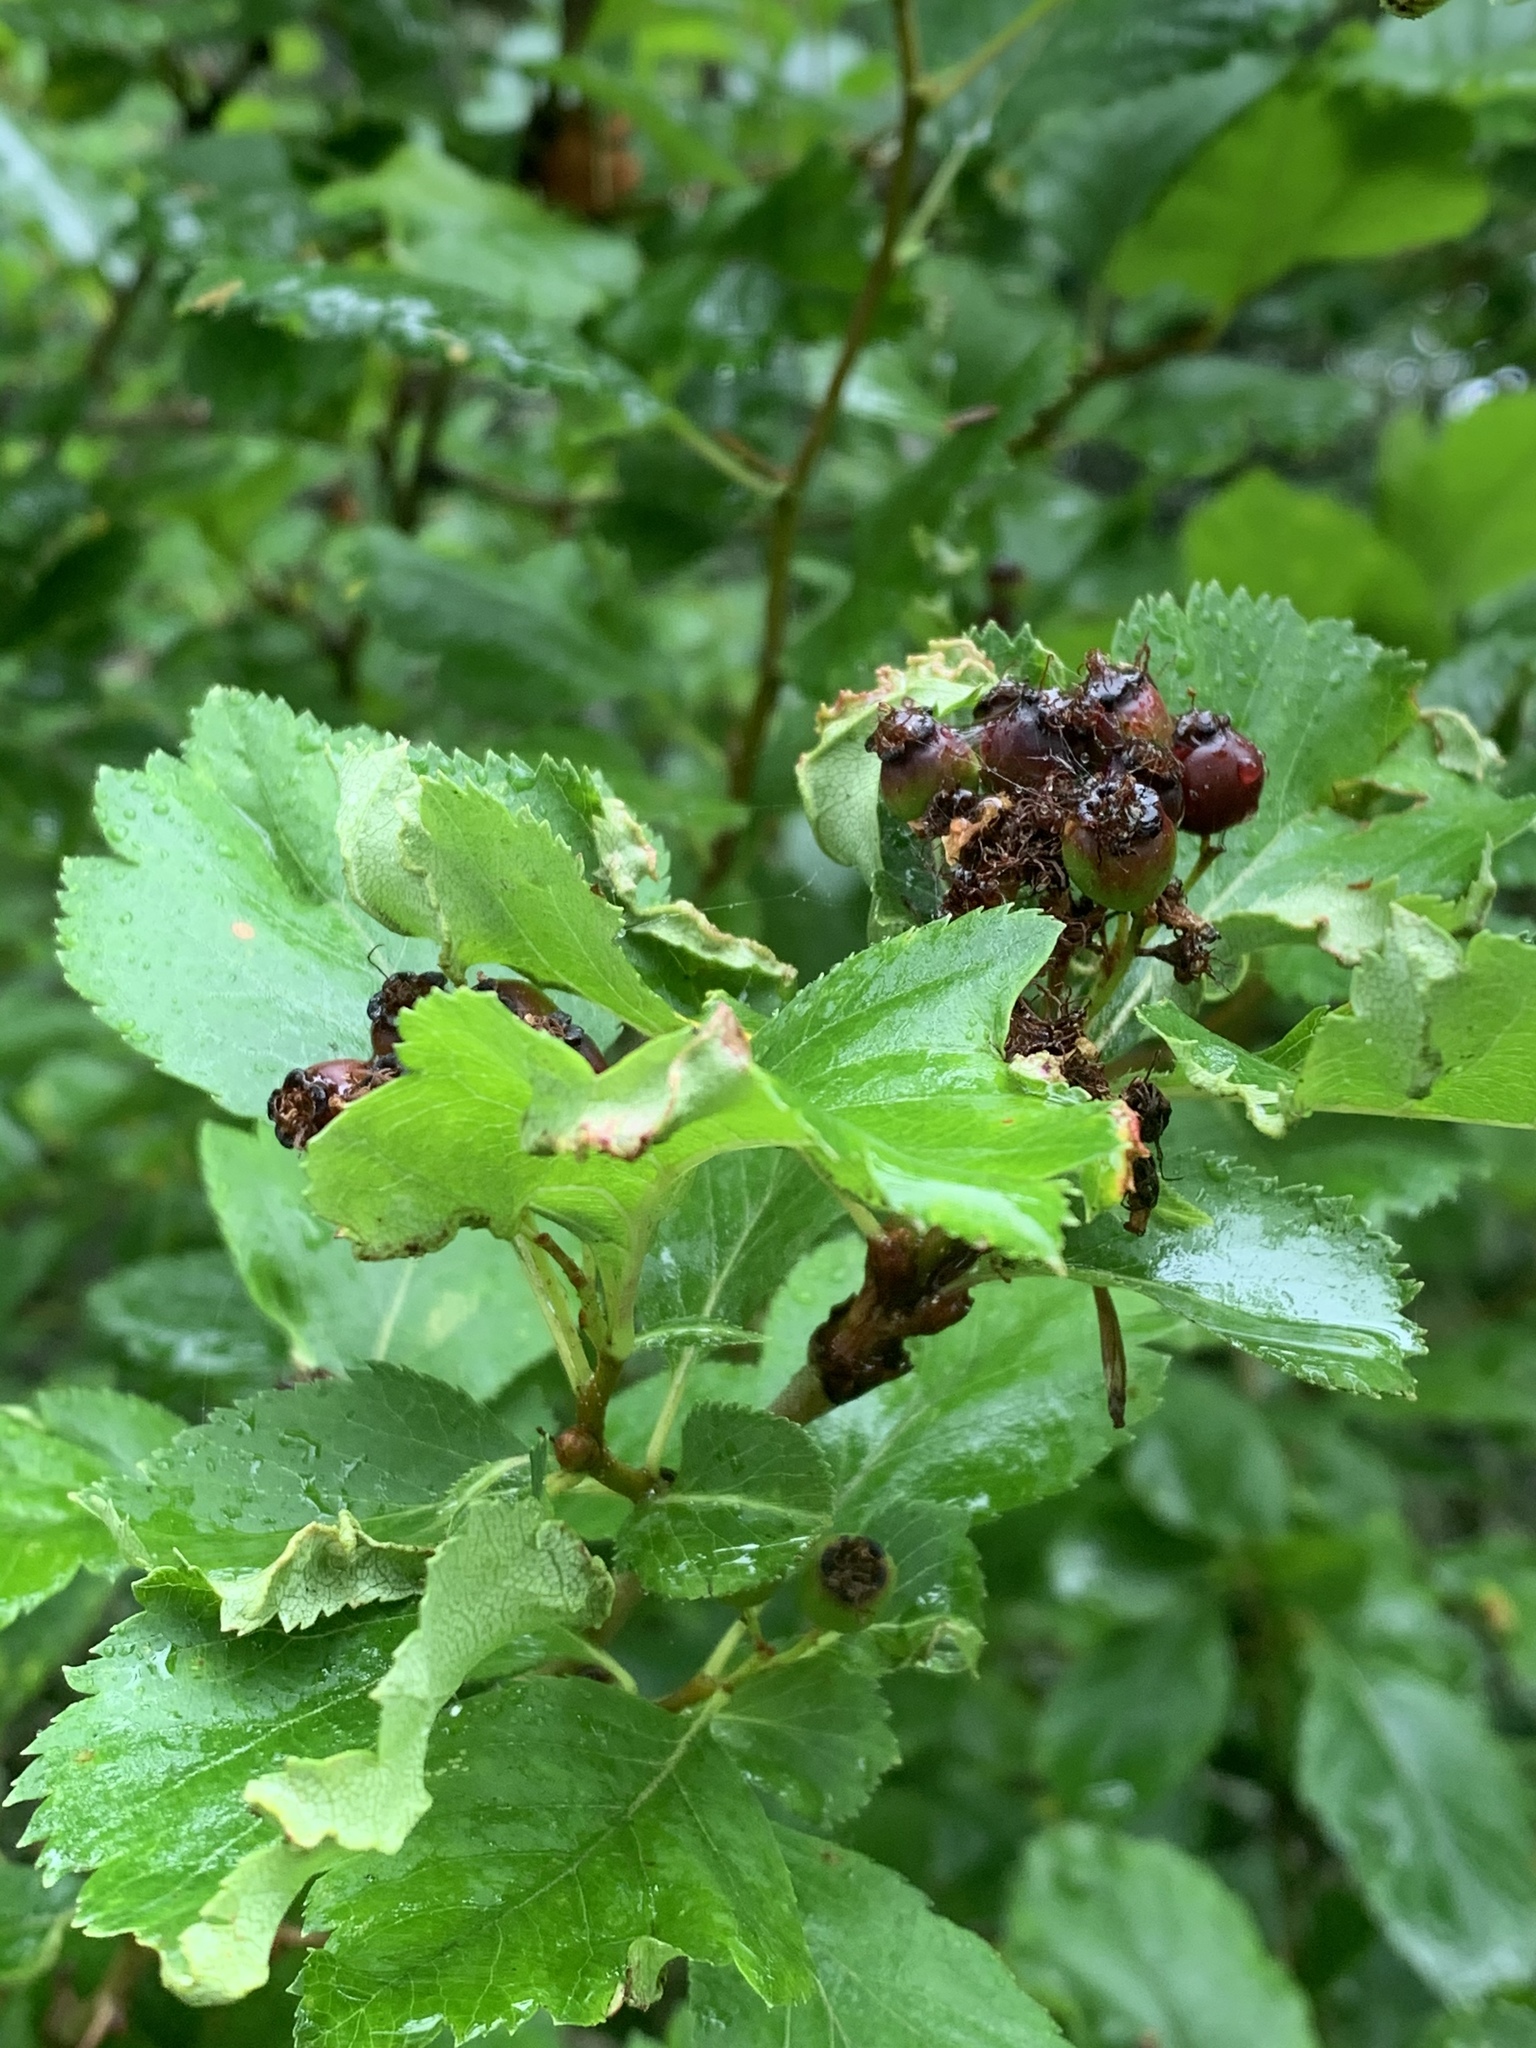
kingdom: Plantae
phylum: Tracheophyta
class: Magnoliopsida
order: Rosales
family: Rosaceae
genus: Crataegus
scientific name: Crataegus gaylussacia
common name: Huckleberry hawthorn
